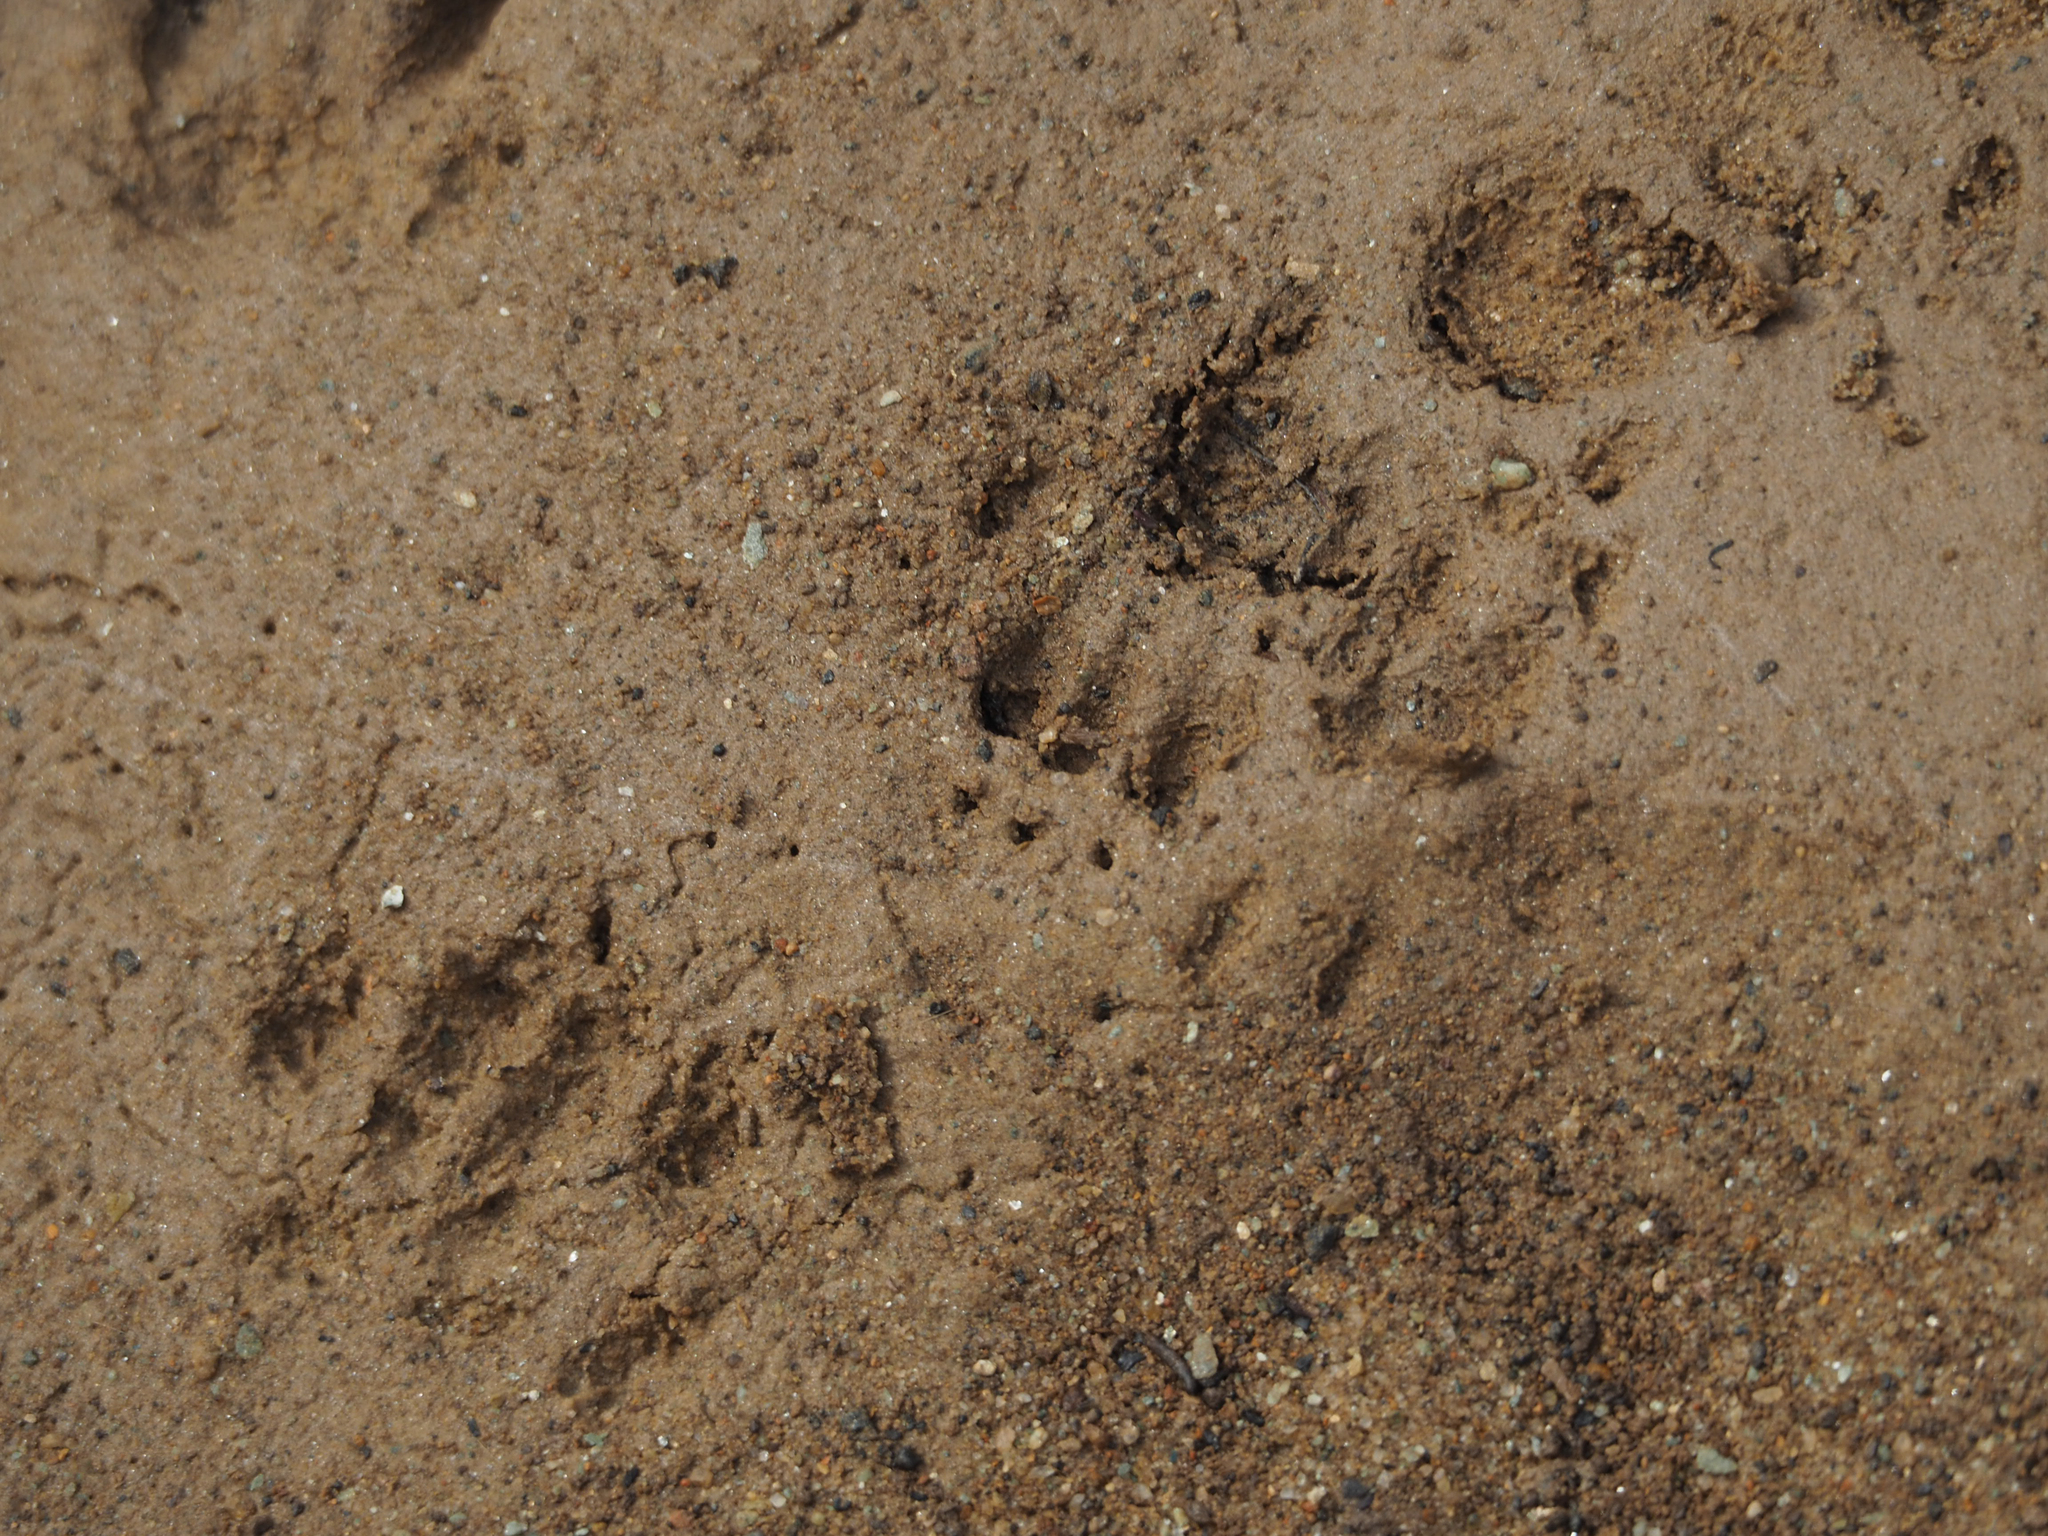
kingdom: Animalia
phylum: Chordata
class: Mammalia
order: Carnivora
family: Procyonidae
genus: Procyon
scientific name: Procyon lotor
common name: Raccoon
